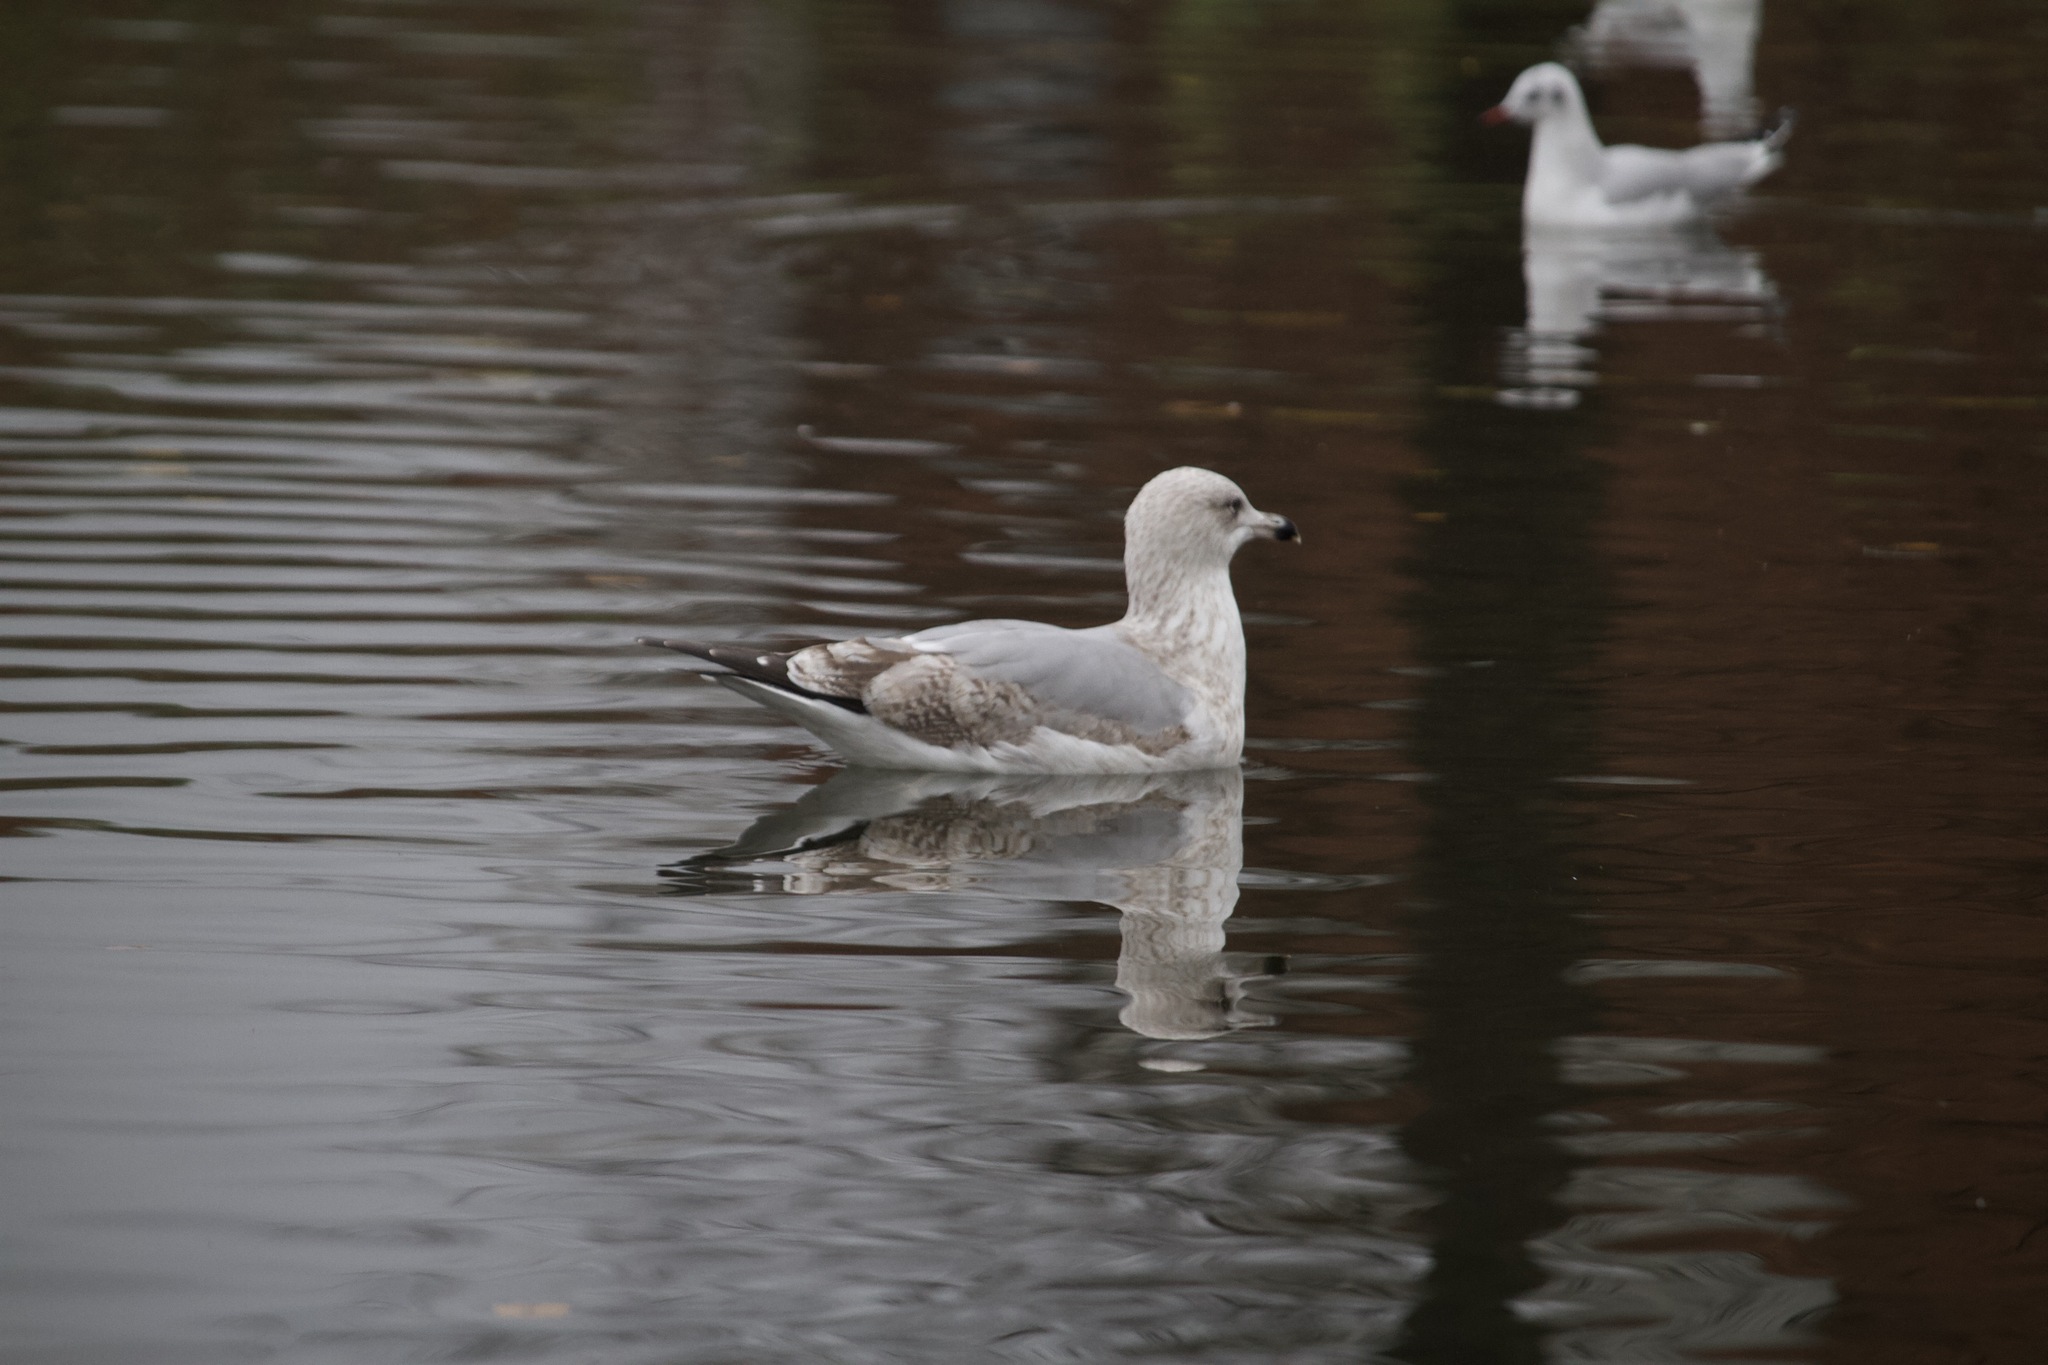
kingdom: Animalia
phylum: Chordata
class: Aves
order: Charadriiformes
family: Laridae
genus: Larus
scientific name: Larus argentatus
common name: Herring gull
